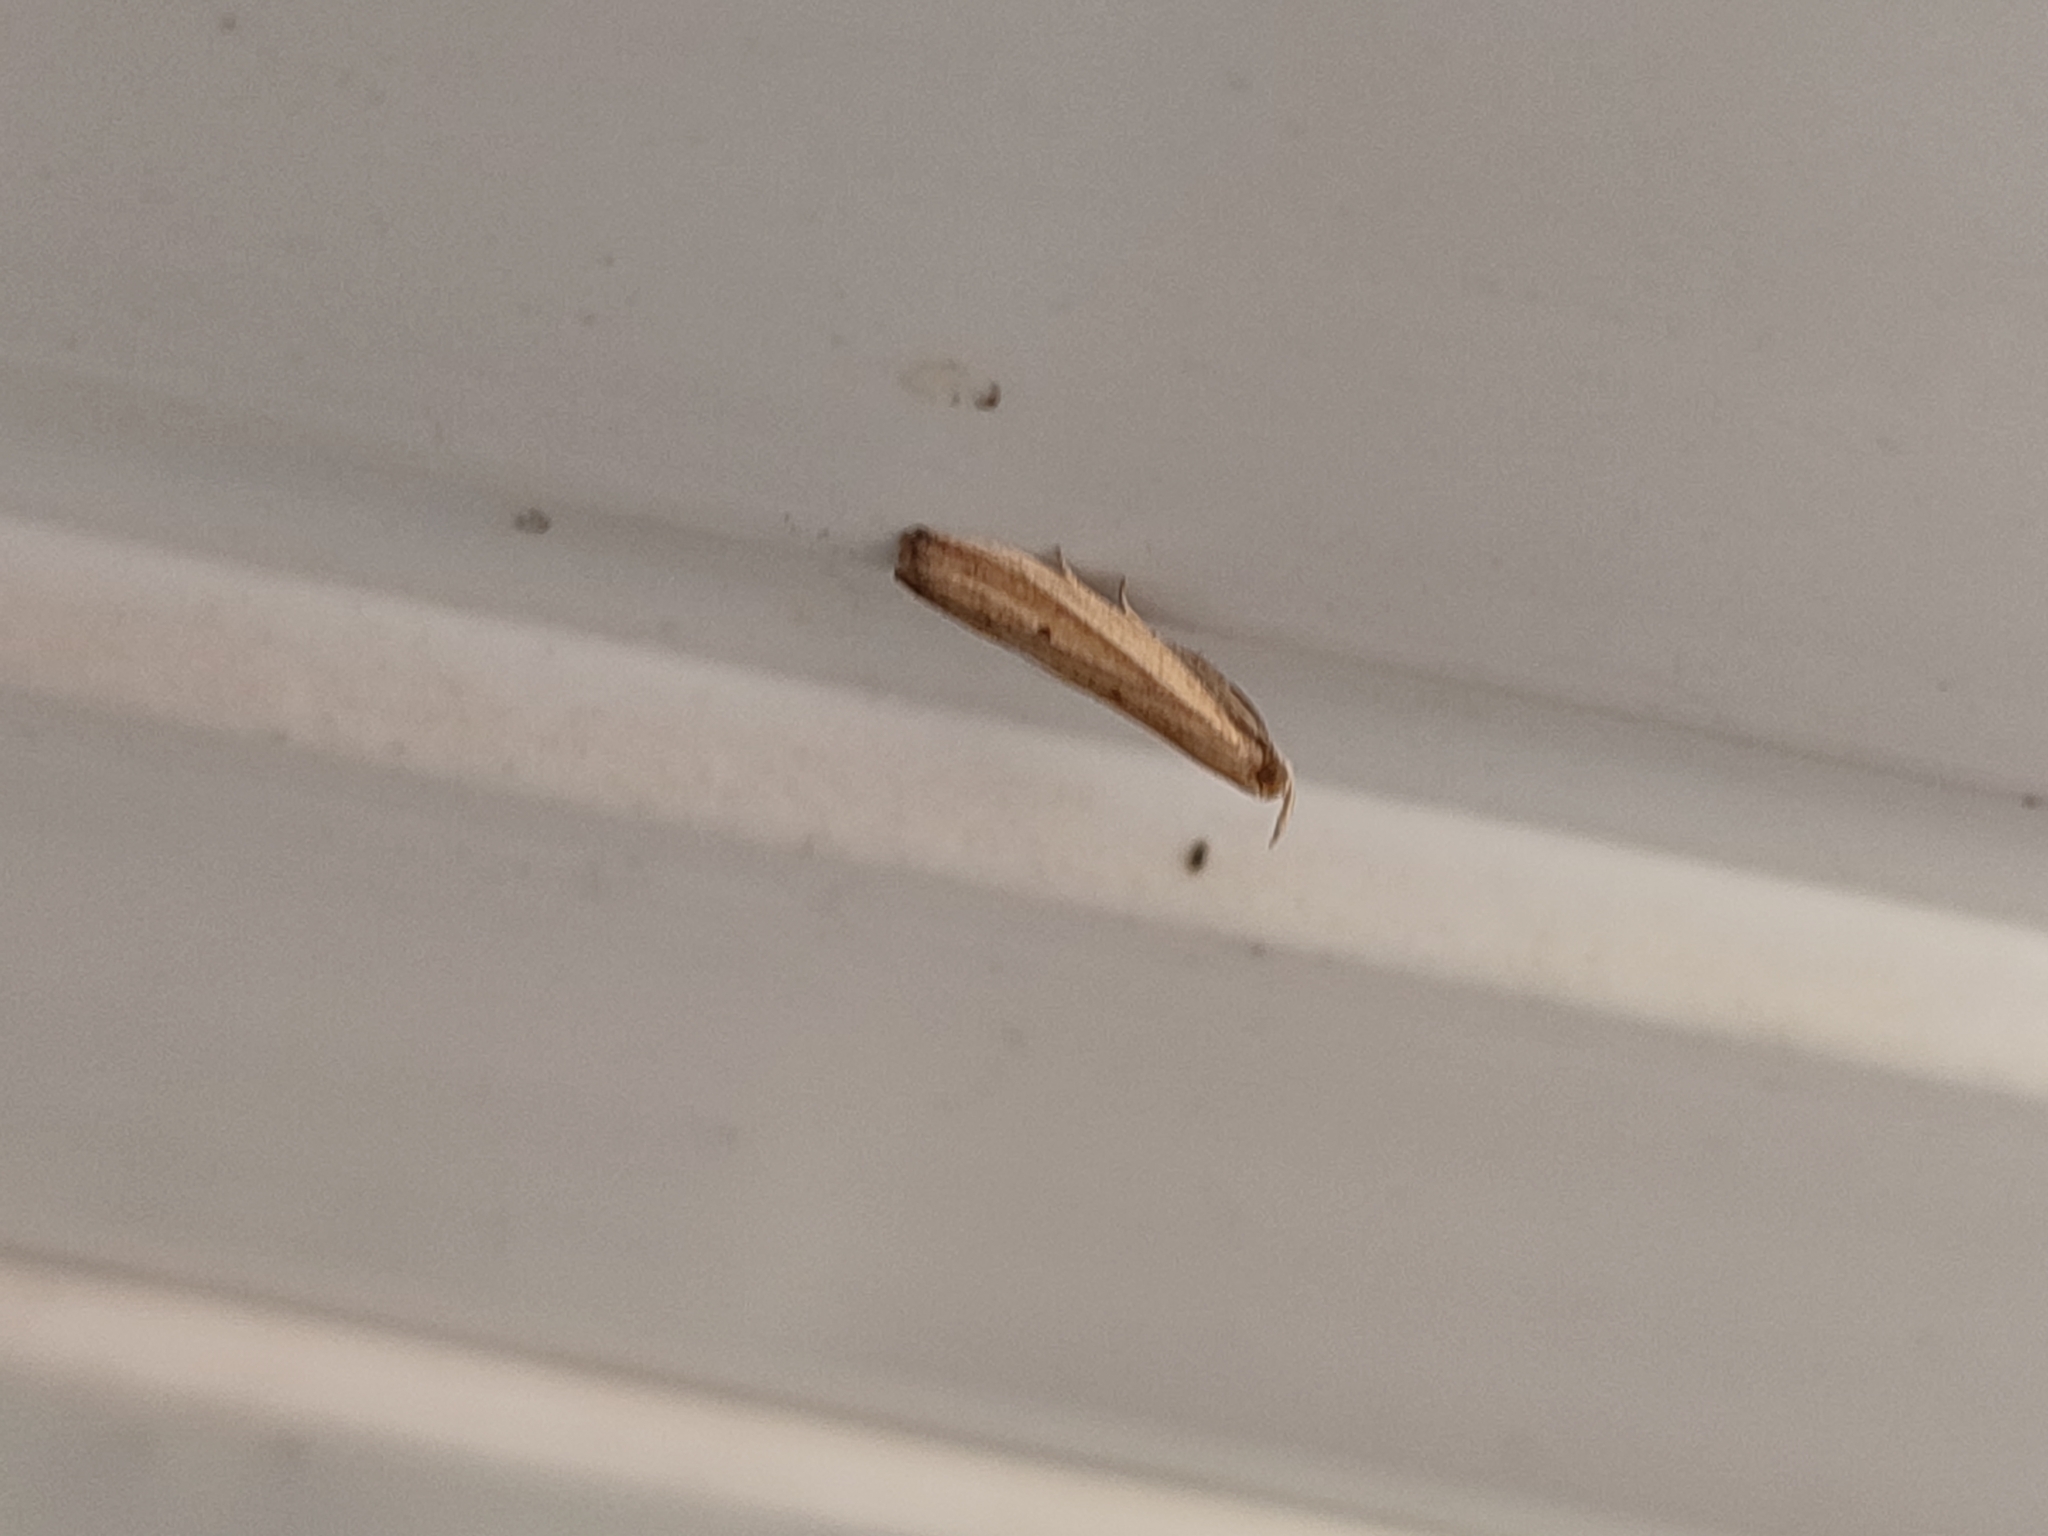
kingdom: Animalia
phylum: Arthropoda
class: Insecta
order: Lepidoptera
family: Pyralidae
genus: Hypsotropa
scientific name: Hypsotropa unipunctella
